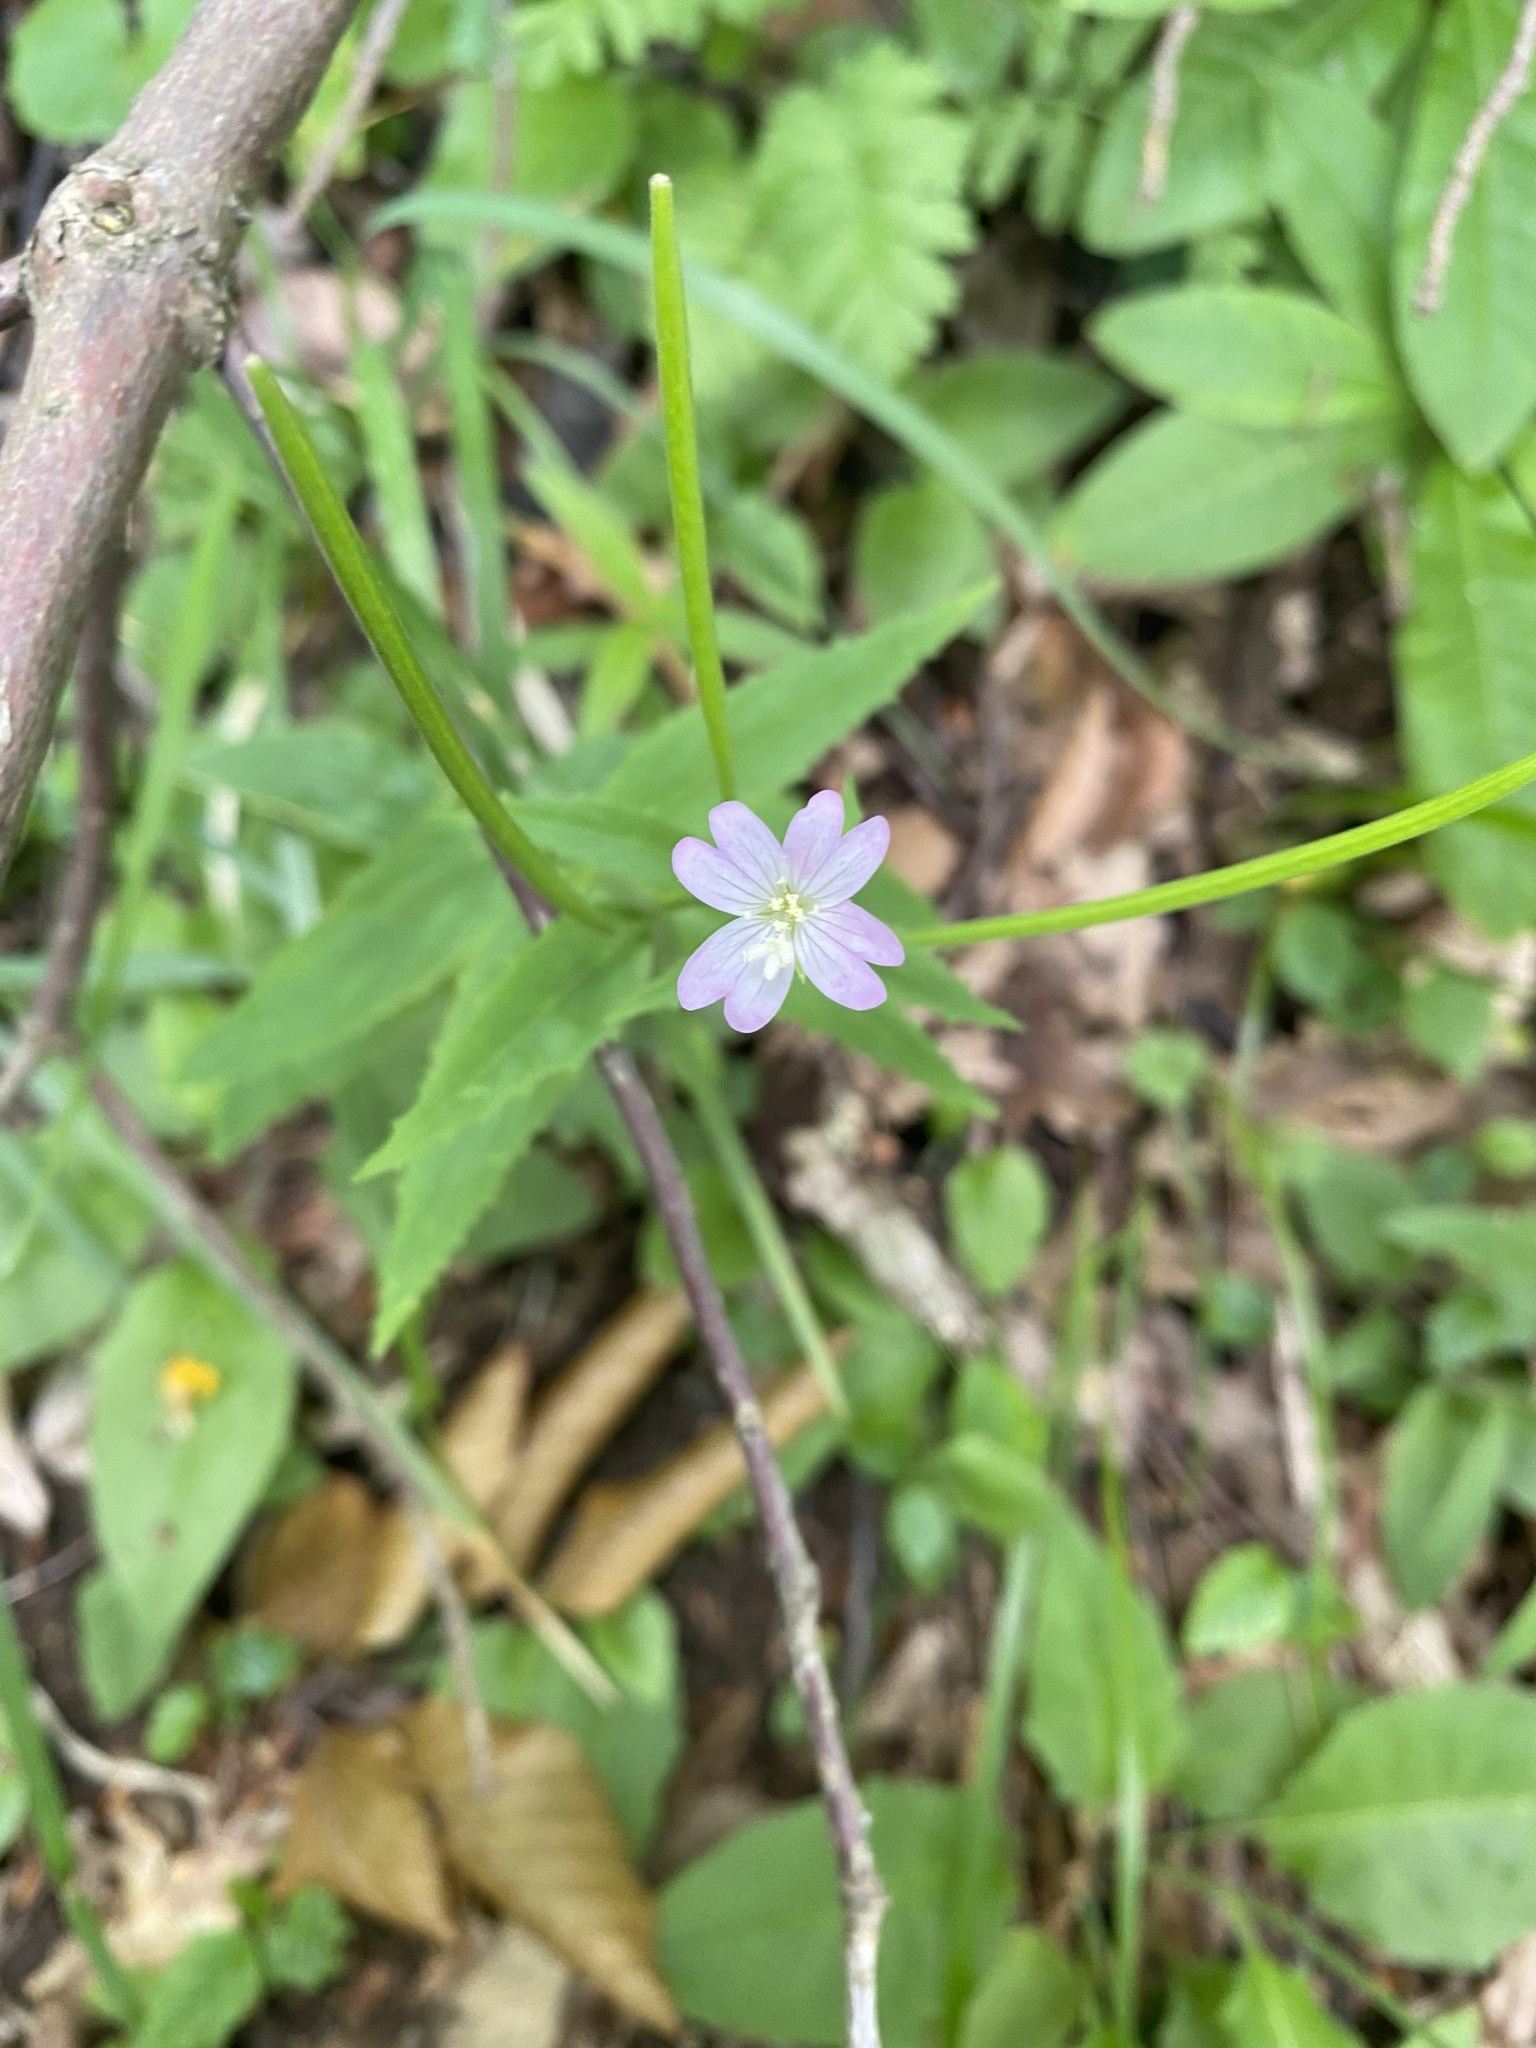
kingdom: Plantae
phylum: Tracheophyta
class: Magnoliopsida
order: Myrtales
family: Onagraceae
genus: Epilobium
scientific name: Epilobium montanum
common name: Broad-leaved willowherb
